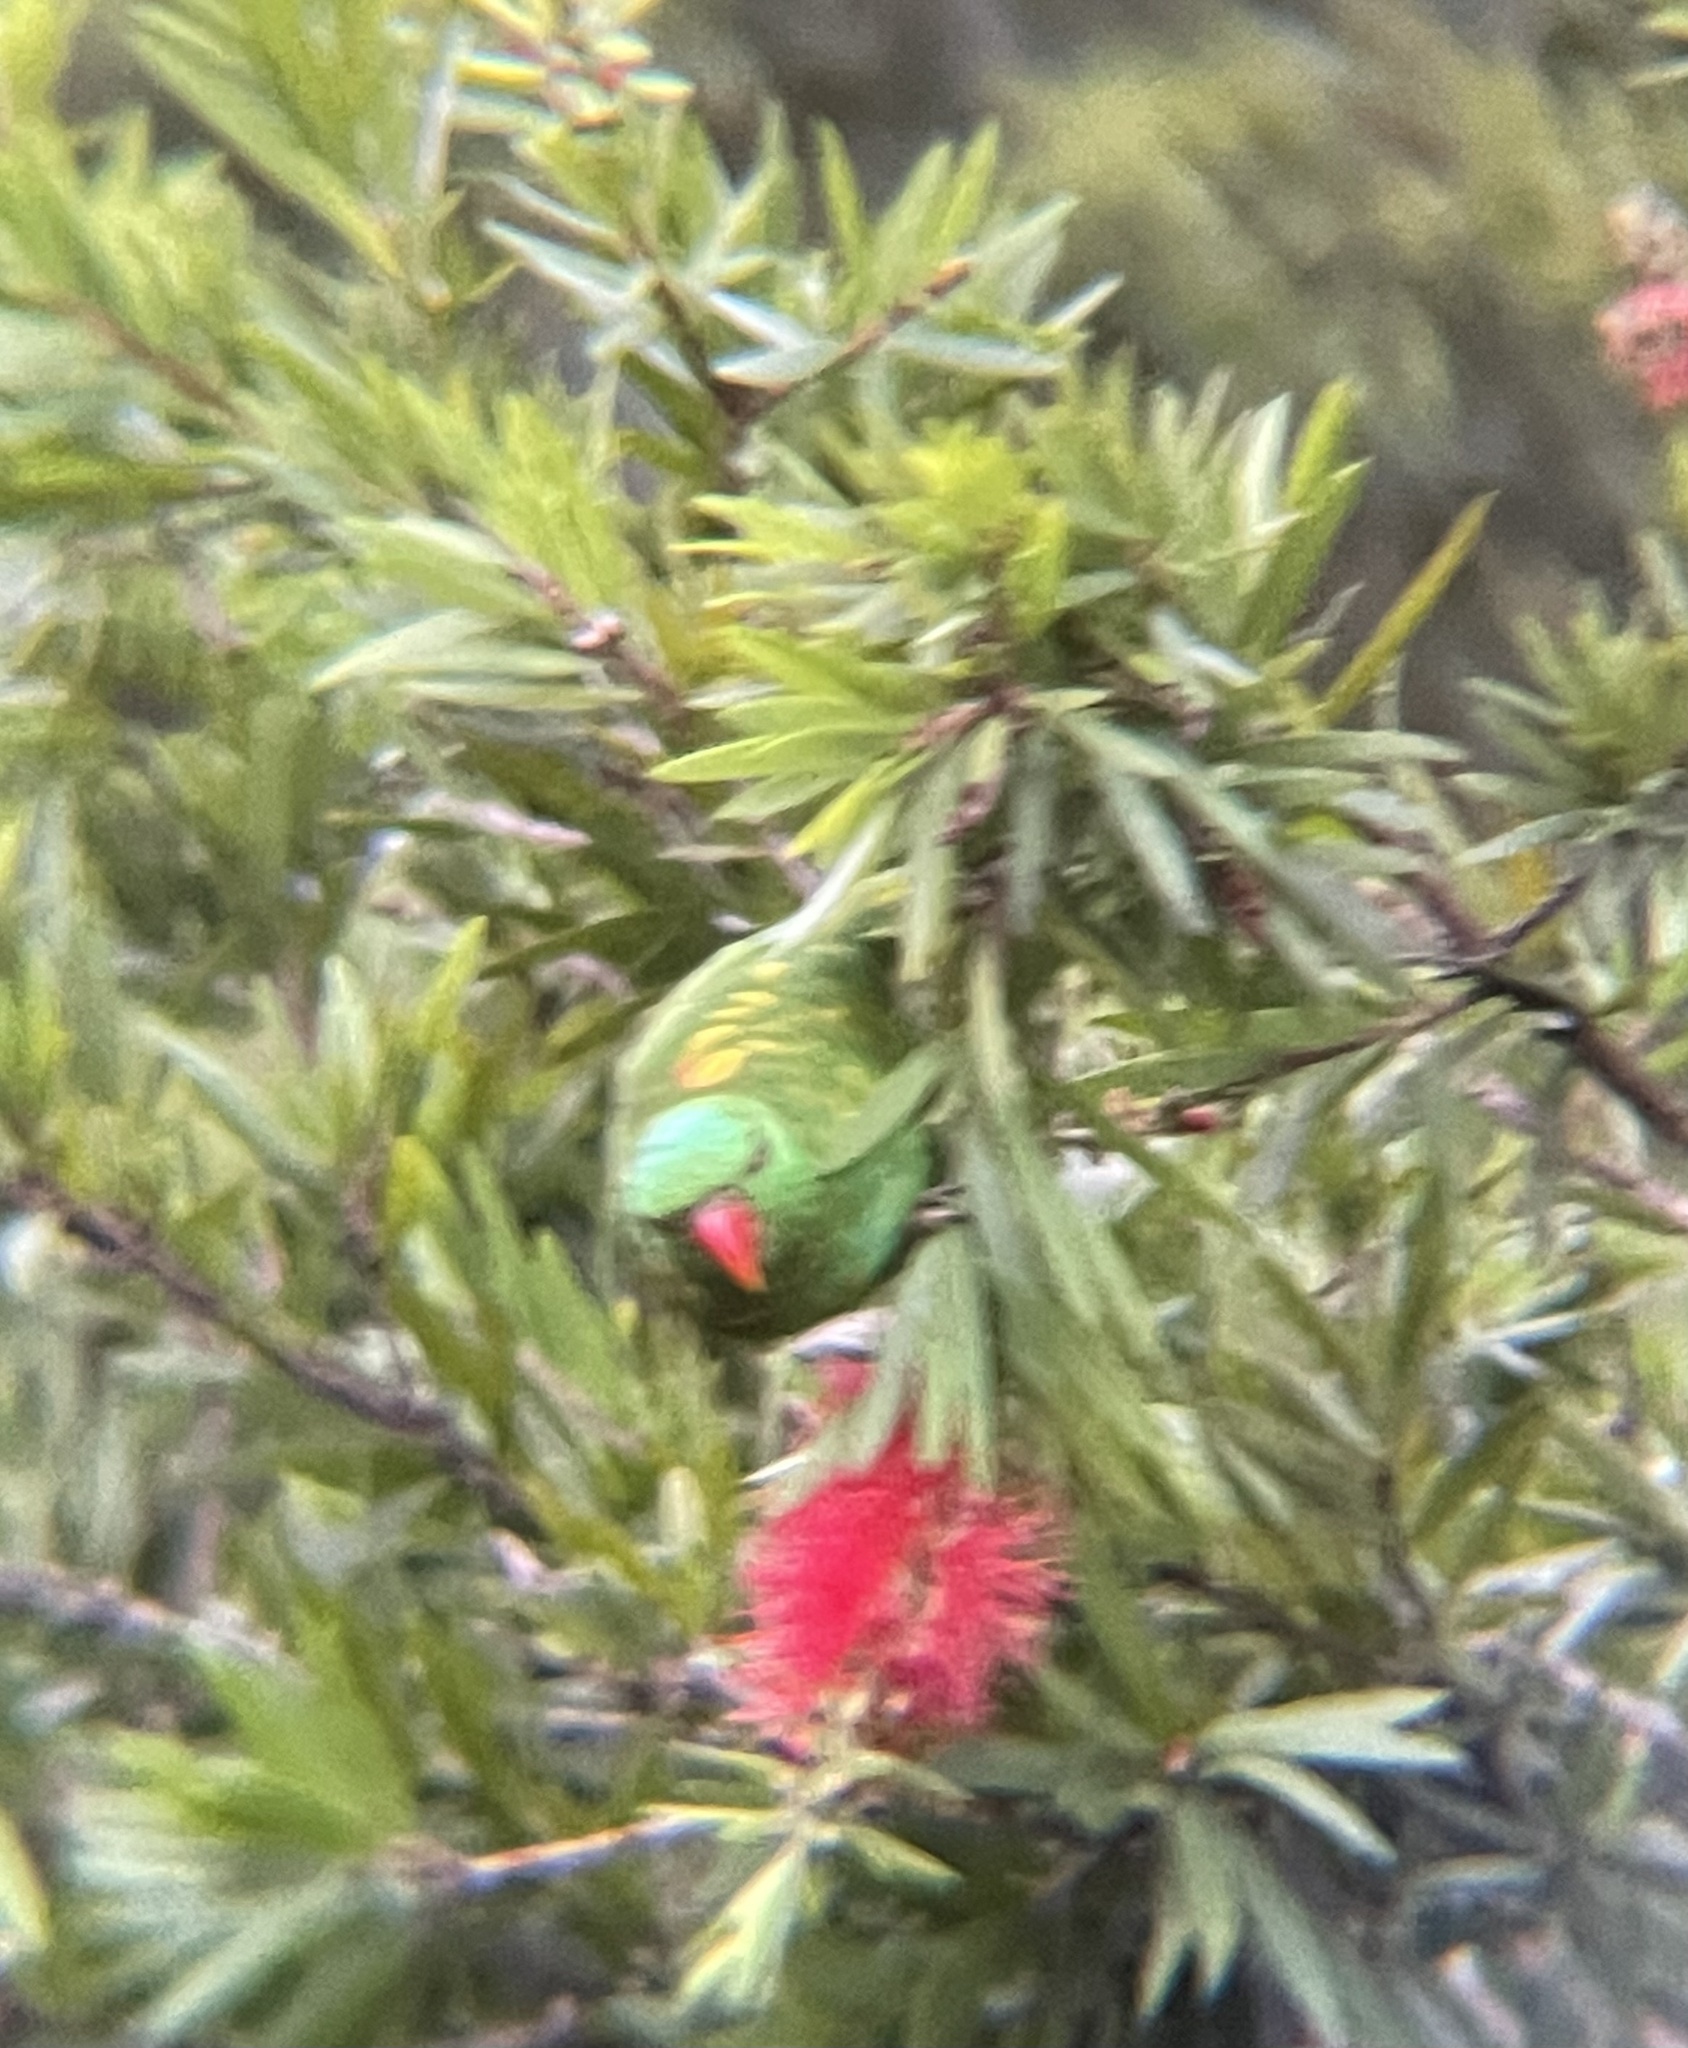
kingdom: Animalia
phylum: Chordata
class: Aves
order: Psittaciformes
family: Psittacidae
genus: Trichoglossus
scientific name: Trichoglossus chlorolepidotus
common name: Scaly-breasted lorikeet
